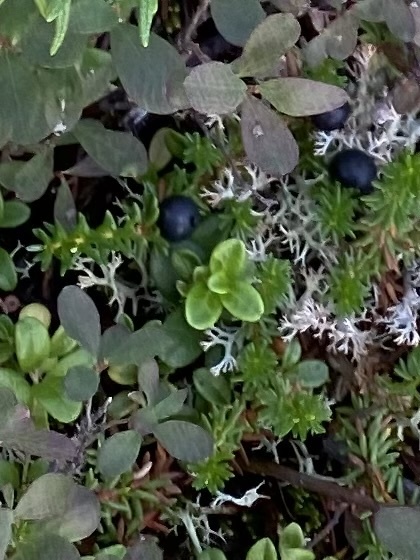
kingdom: Plantae
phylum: Tracheophyta
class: Magnoliopsida
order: Ericales
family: Ericaceae
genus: Empetrum
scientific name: Empetrum nigrum
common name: Black crowberry
